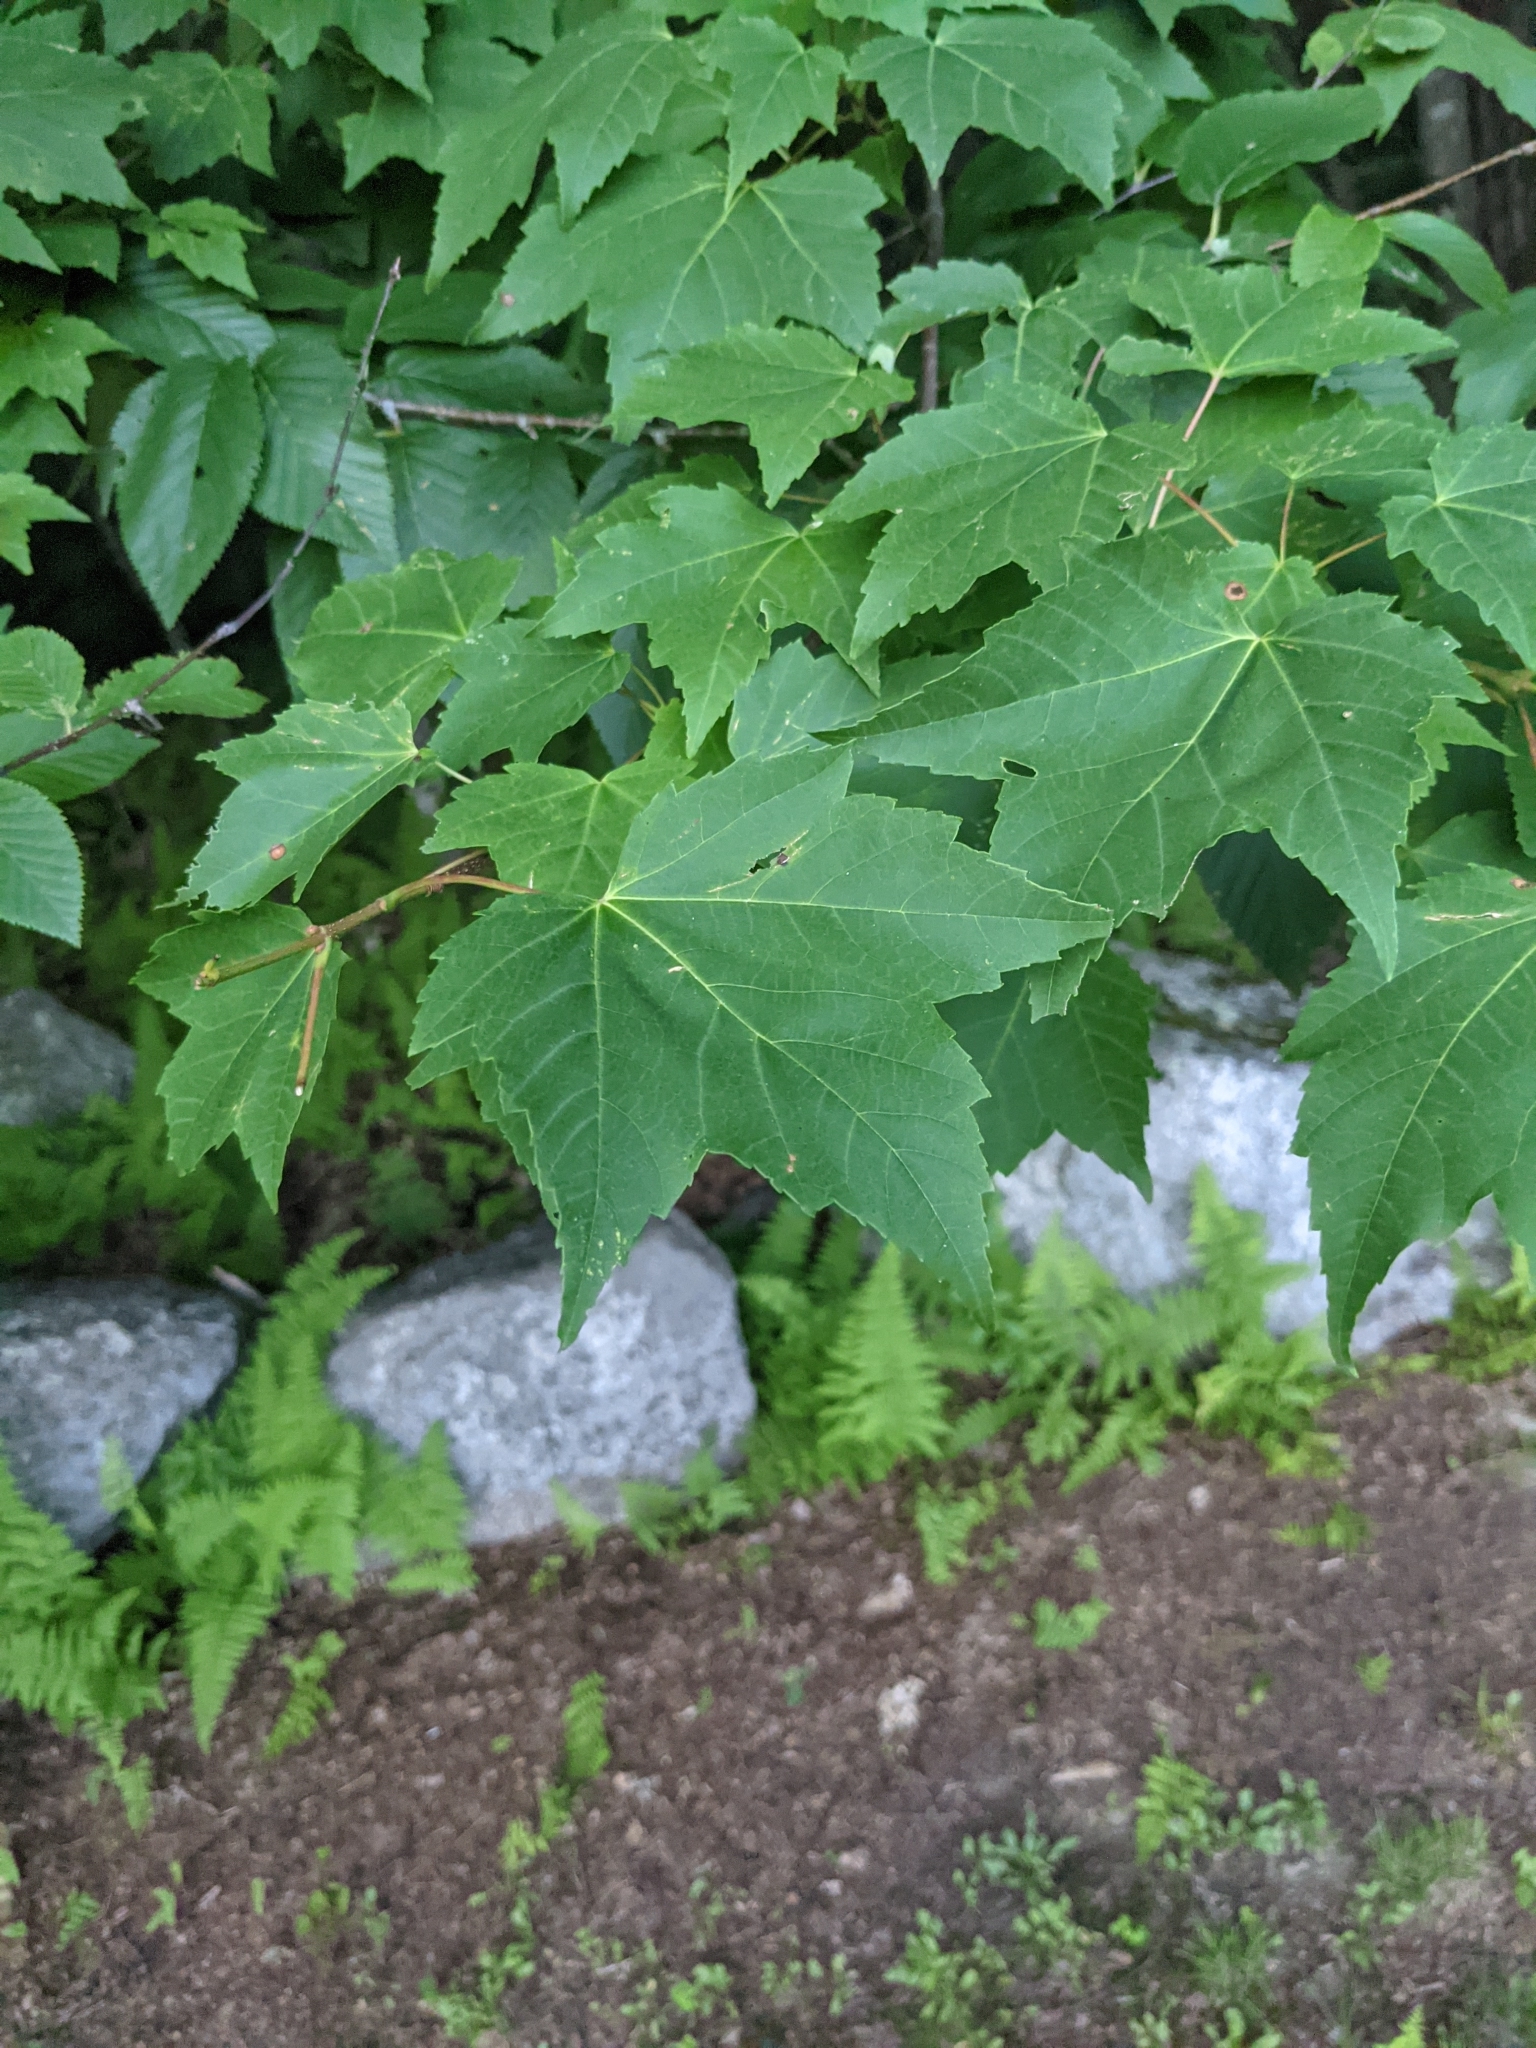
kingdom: Plantae
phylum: Tracheophyta
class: Magnoliopsida
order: Sapindales
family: Sapindaceae
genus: Acer
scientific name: Acer rubrum
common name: Red maple
